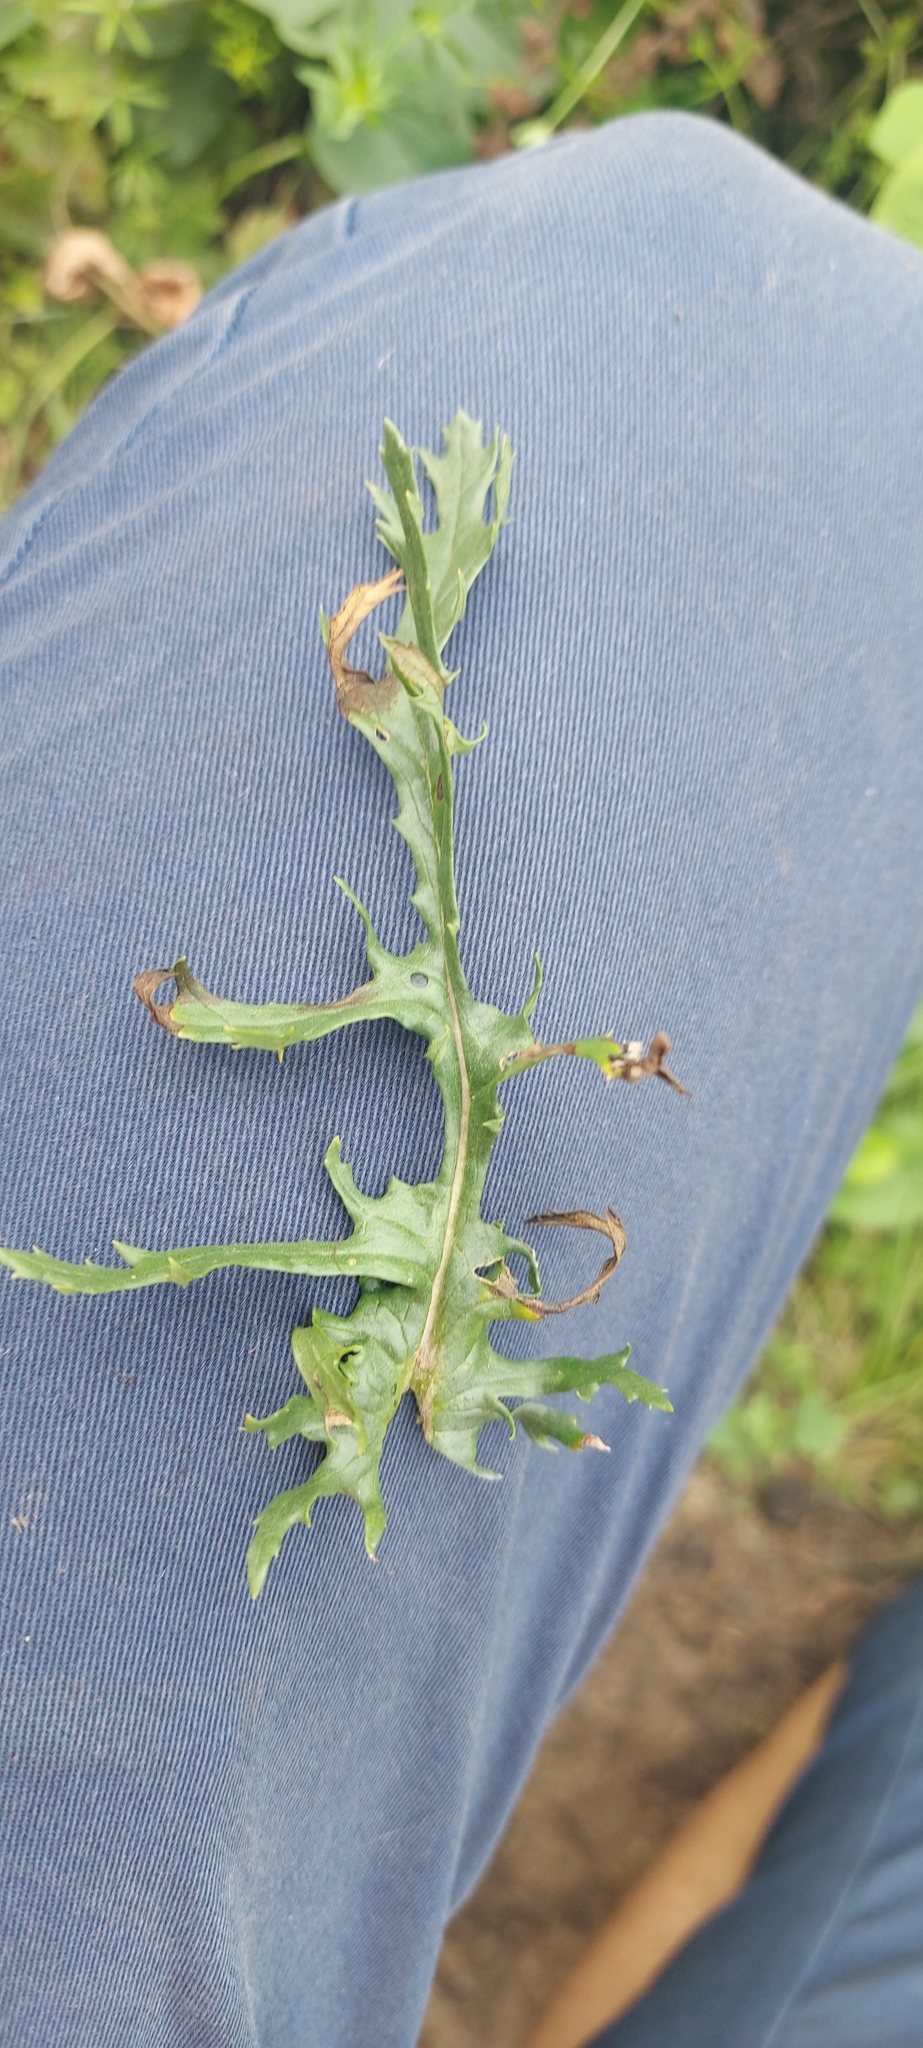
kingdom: Plantae
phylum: Tracheophyta
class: Magnoliopsida
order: Asterales
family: Asteraceae
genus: Jacobaea
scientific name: Jacobaea vulgaris
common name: Stinking willie
